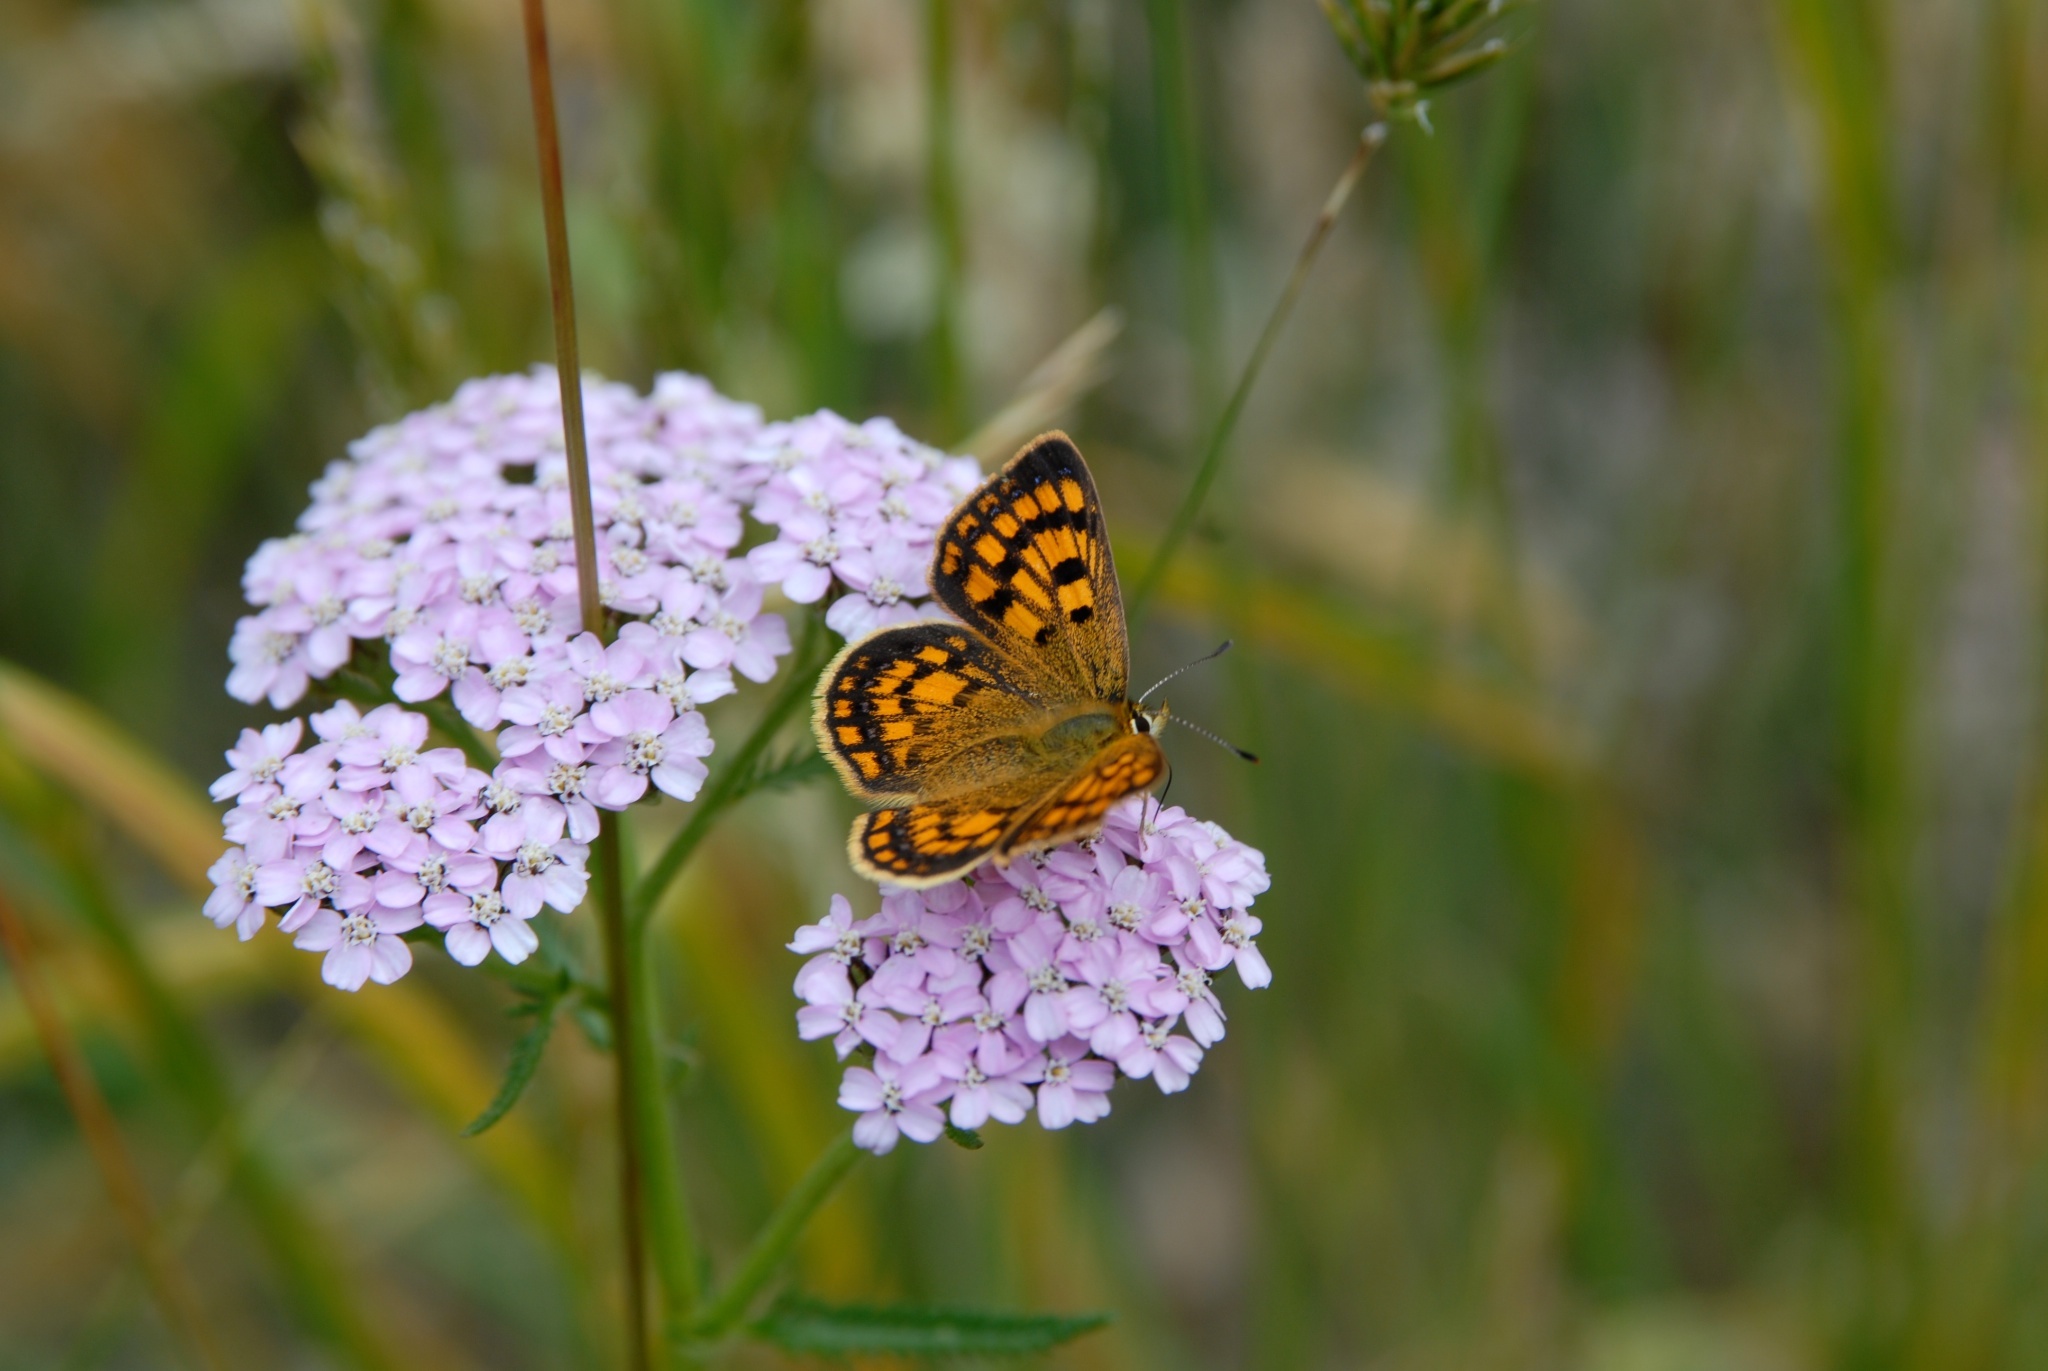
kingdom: Animalia
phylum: Arthropoda
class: Insecta
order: Lepidoptera
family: Lycaenidae
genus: Lycaena
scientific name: Lycaena salustius
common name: North island coastal copper
